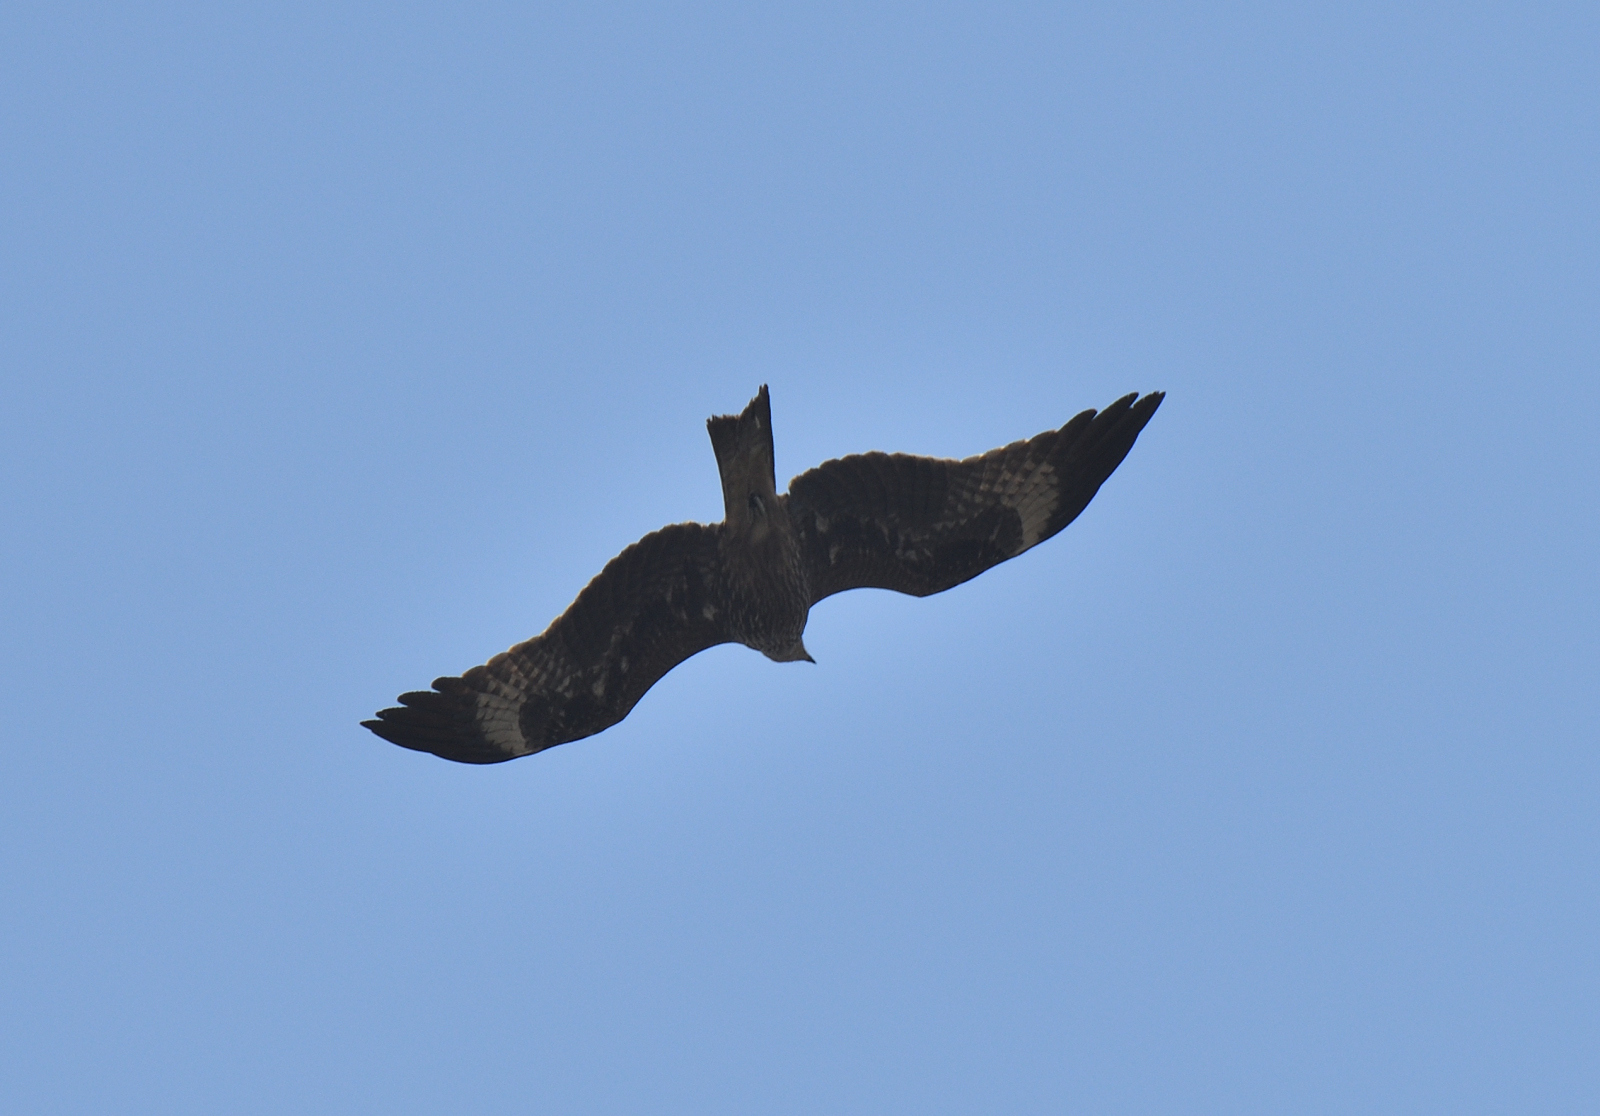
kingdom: Animalia
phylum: Chordata
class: Aves
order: Accipitriformes
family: Accipitridae
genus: Milvus
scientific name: Milvus migrans
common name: Black kite
